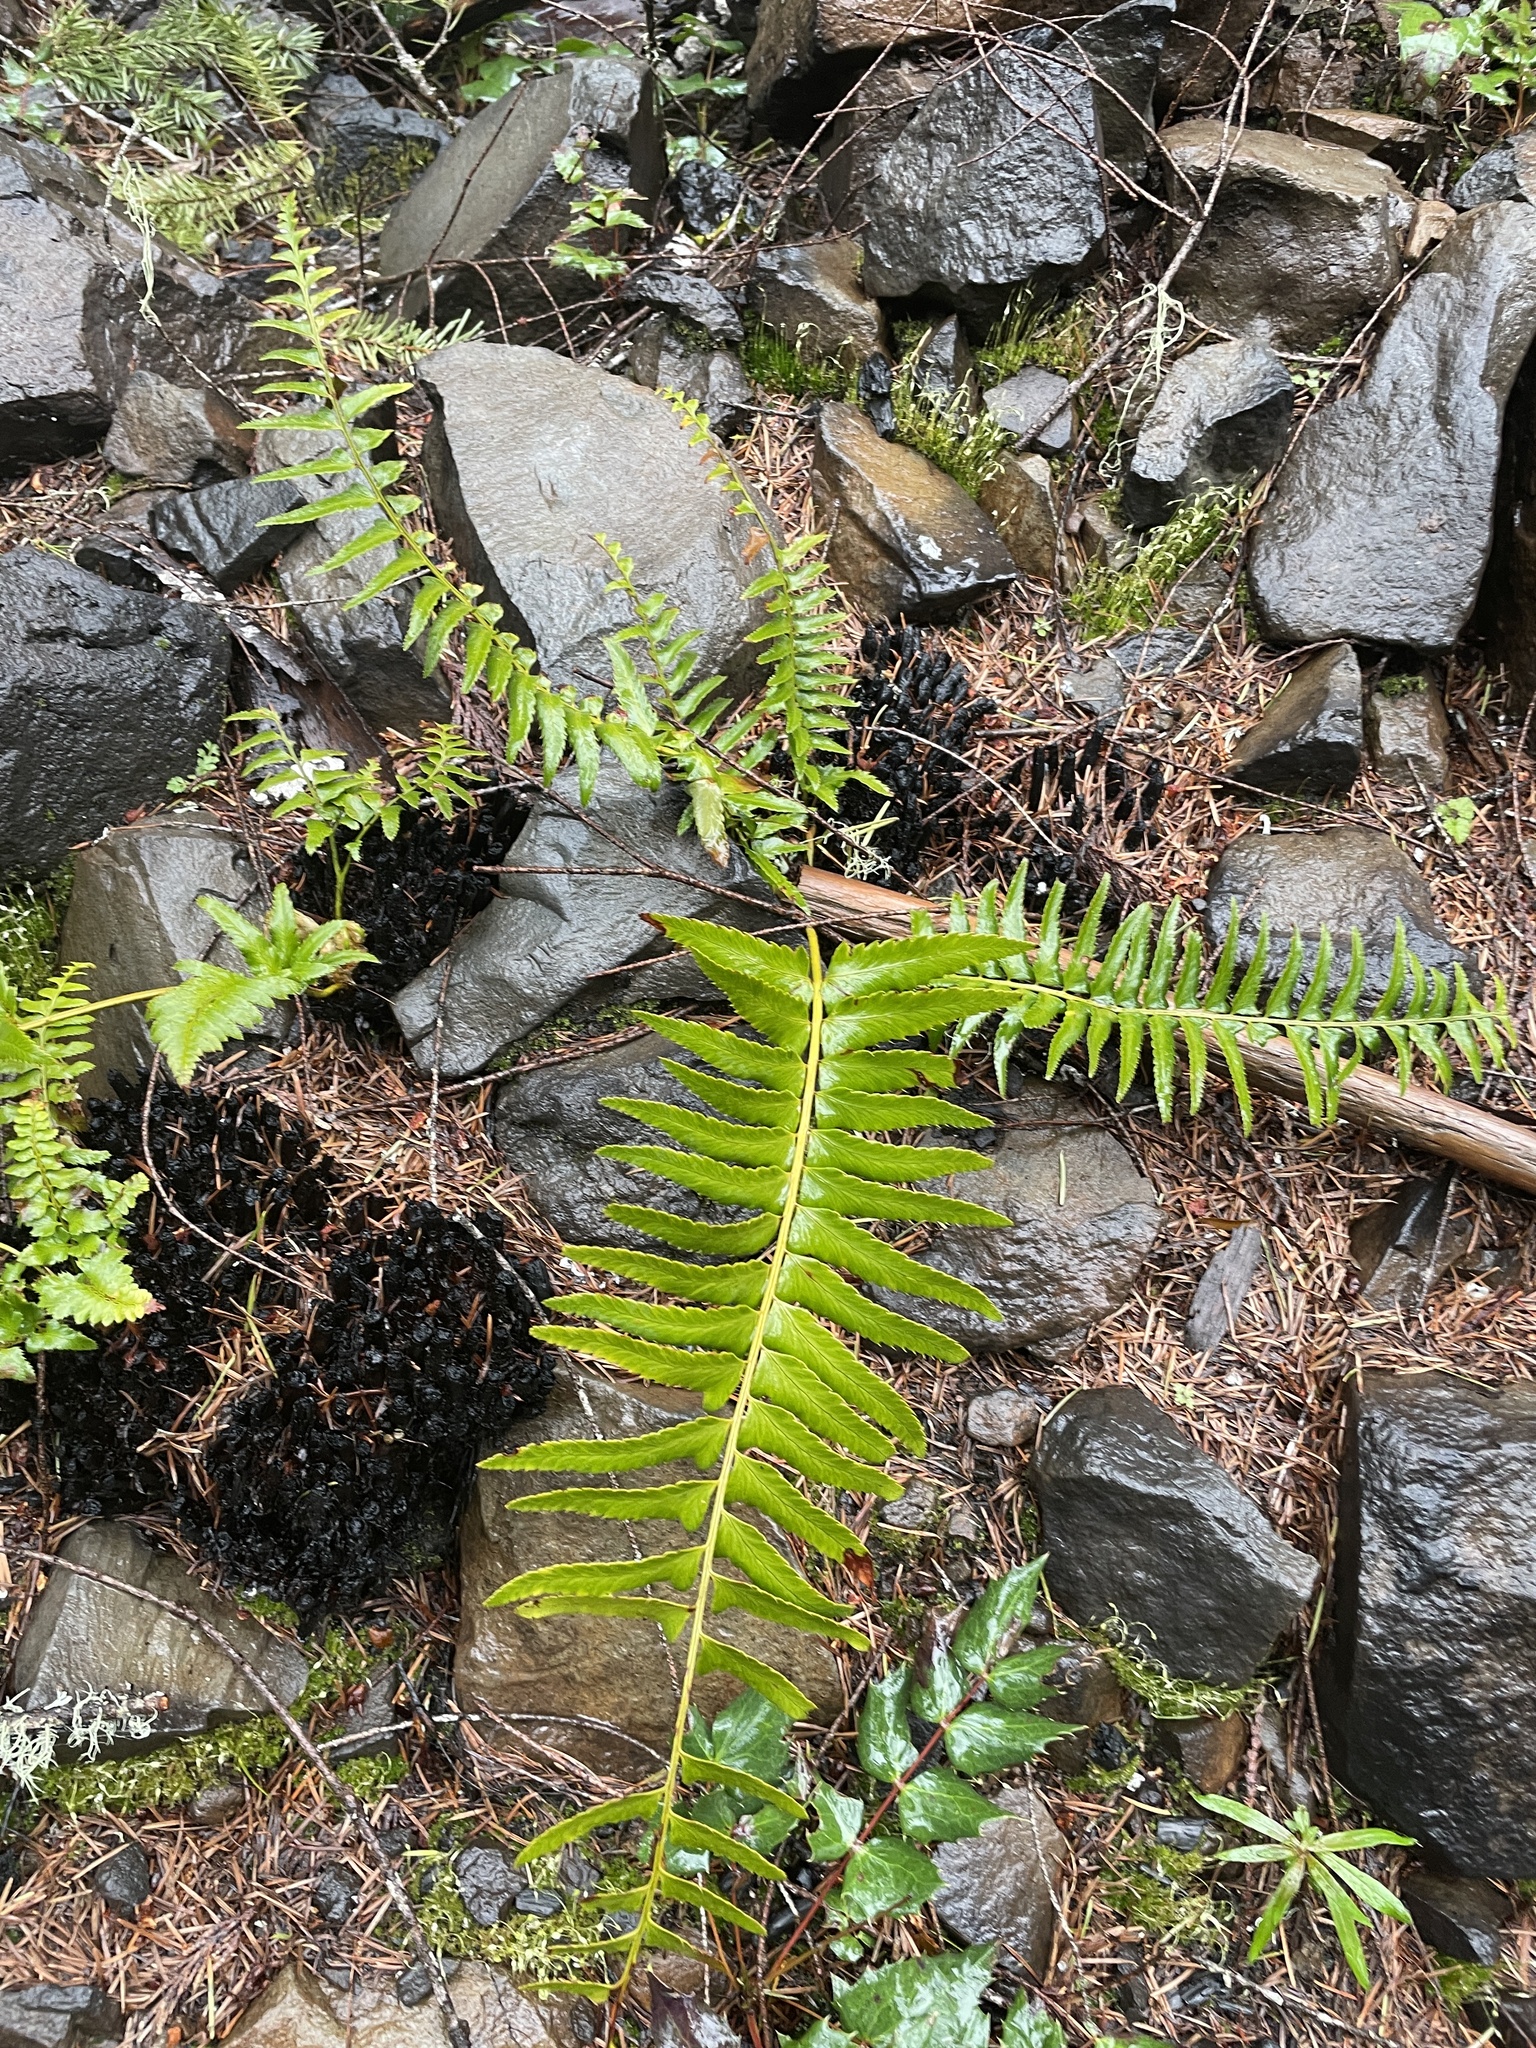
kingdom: Plantae
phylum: Tracheophyta
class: Polypodiopsida
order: Polypodiales
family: Dryopteridaceae
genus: Polystichum
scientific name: Polystichum munitum
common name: Western sword-fern
